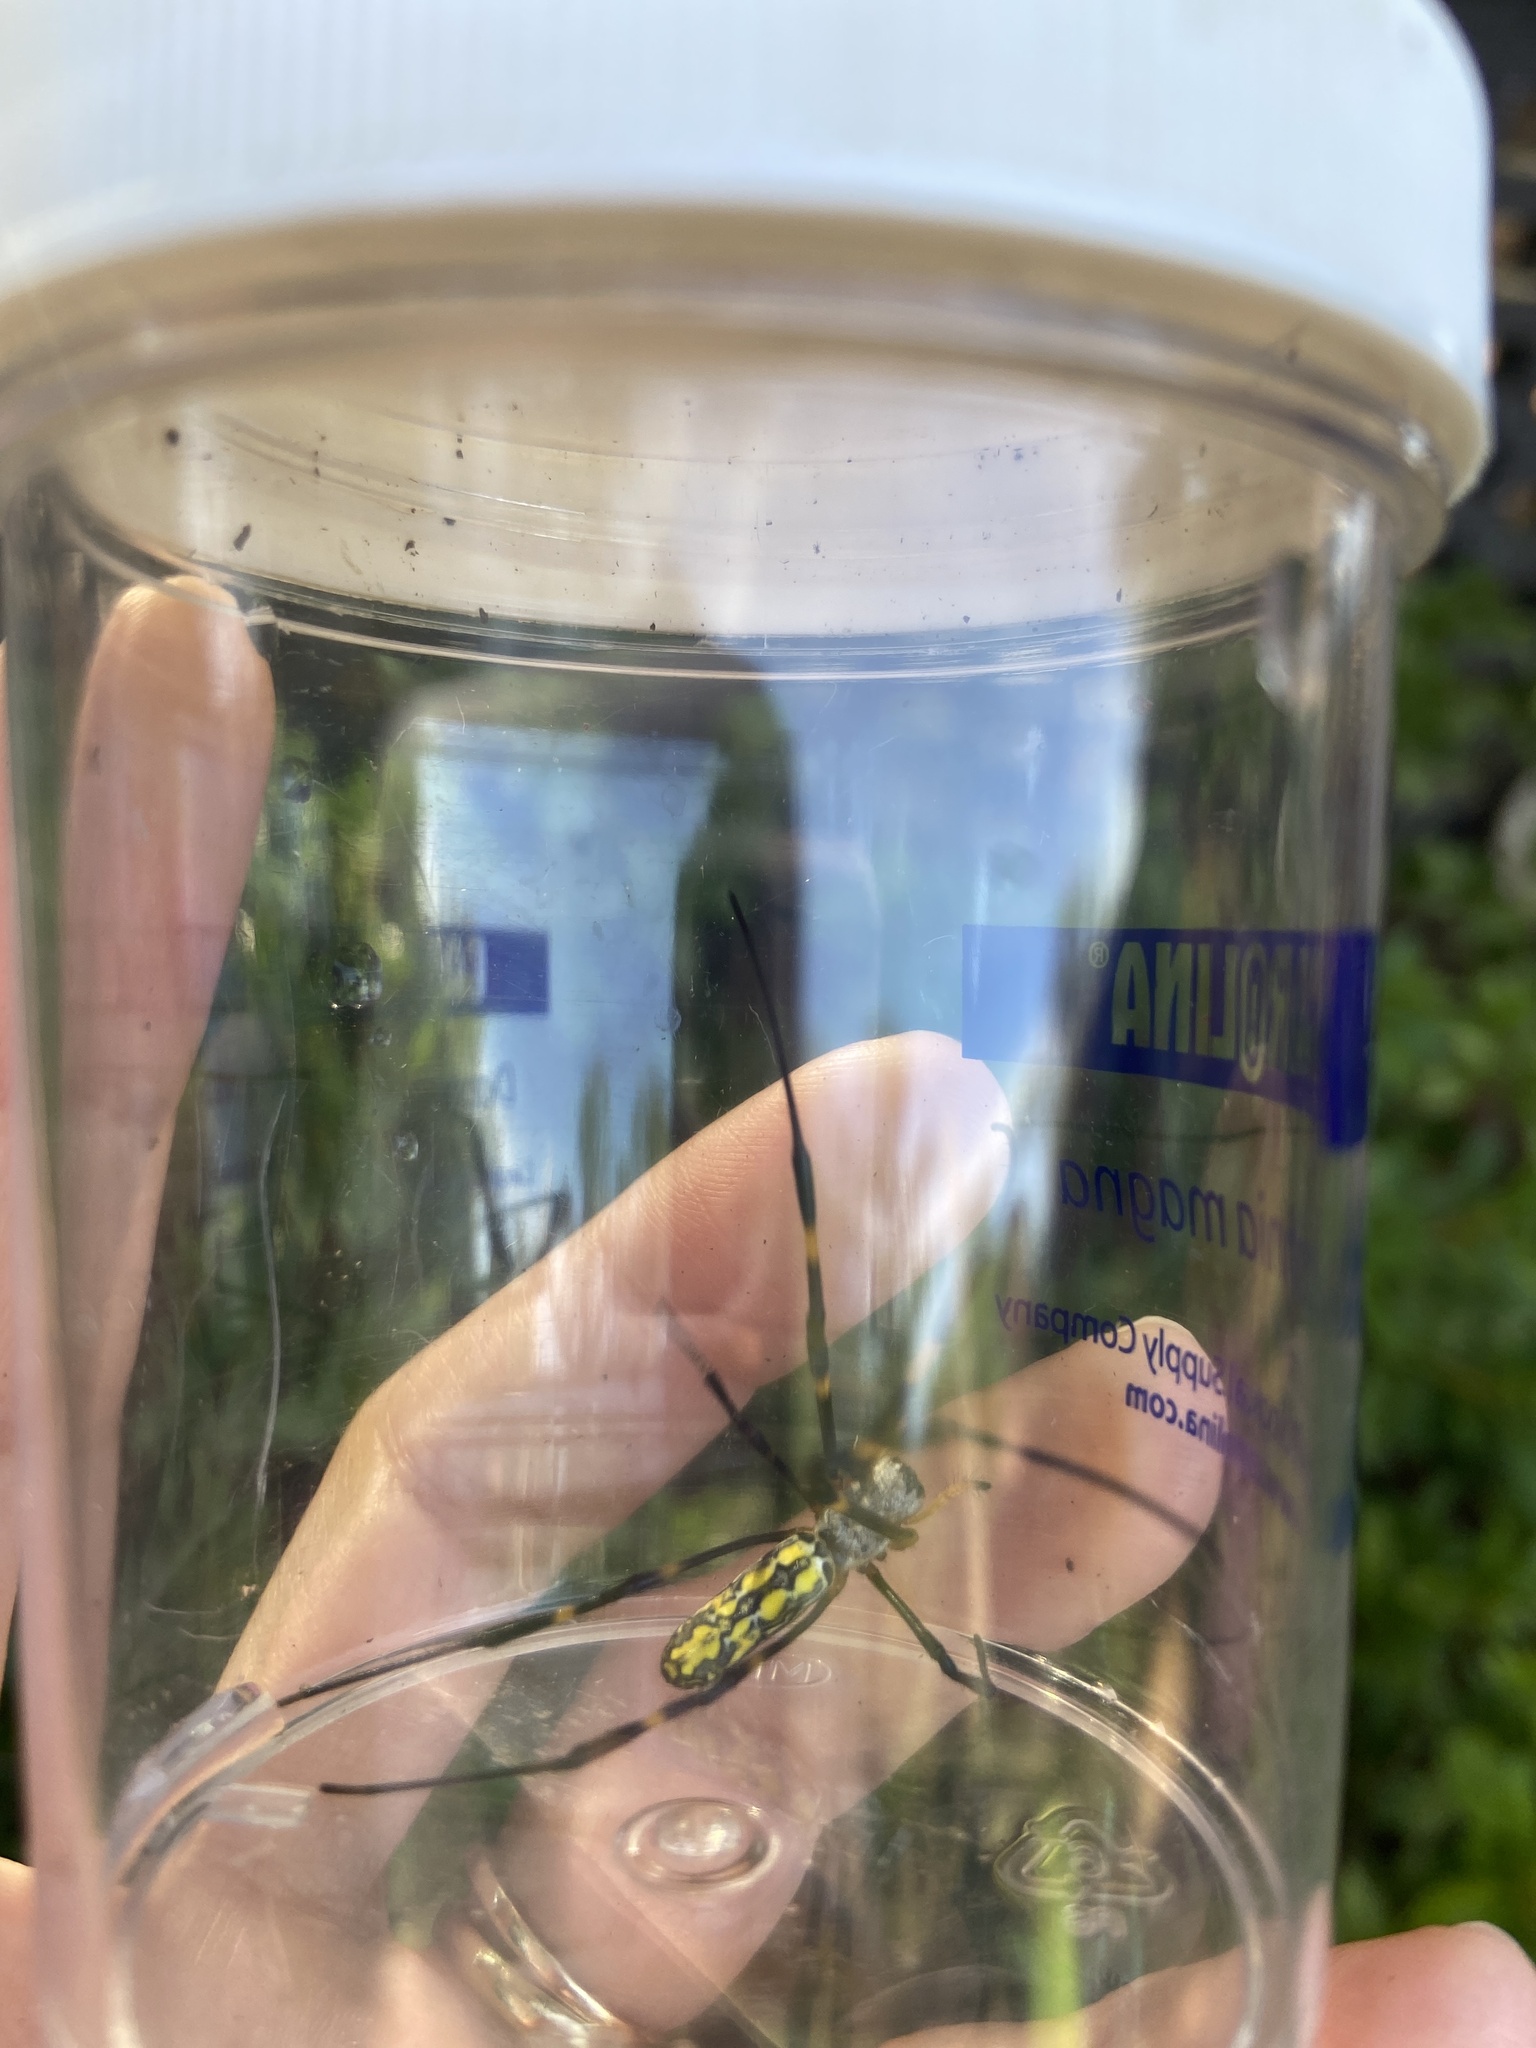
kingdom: Animalia
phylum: Arthropoda
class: Arachnida
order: Araneae
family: Araneidae
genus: Trichonephila
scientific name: Trichonephila clavata
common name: Jorō spider
